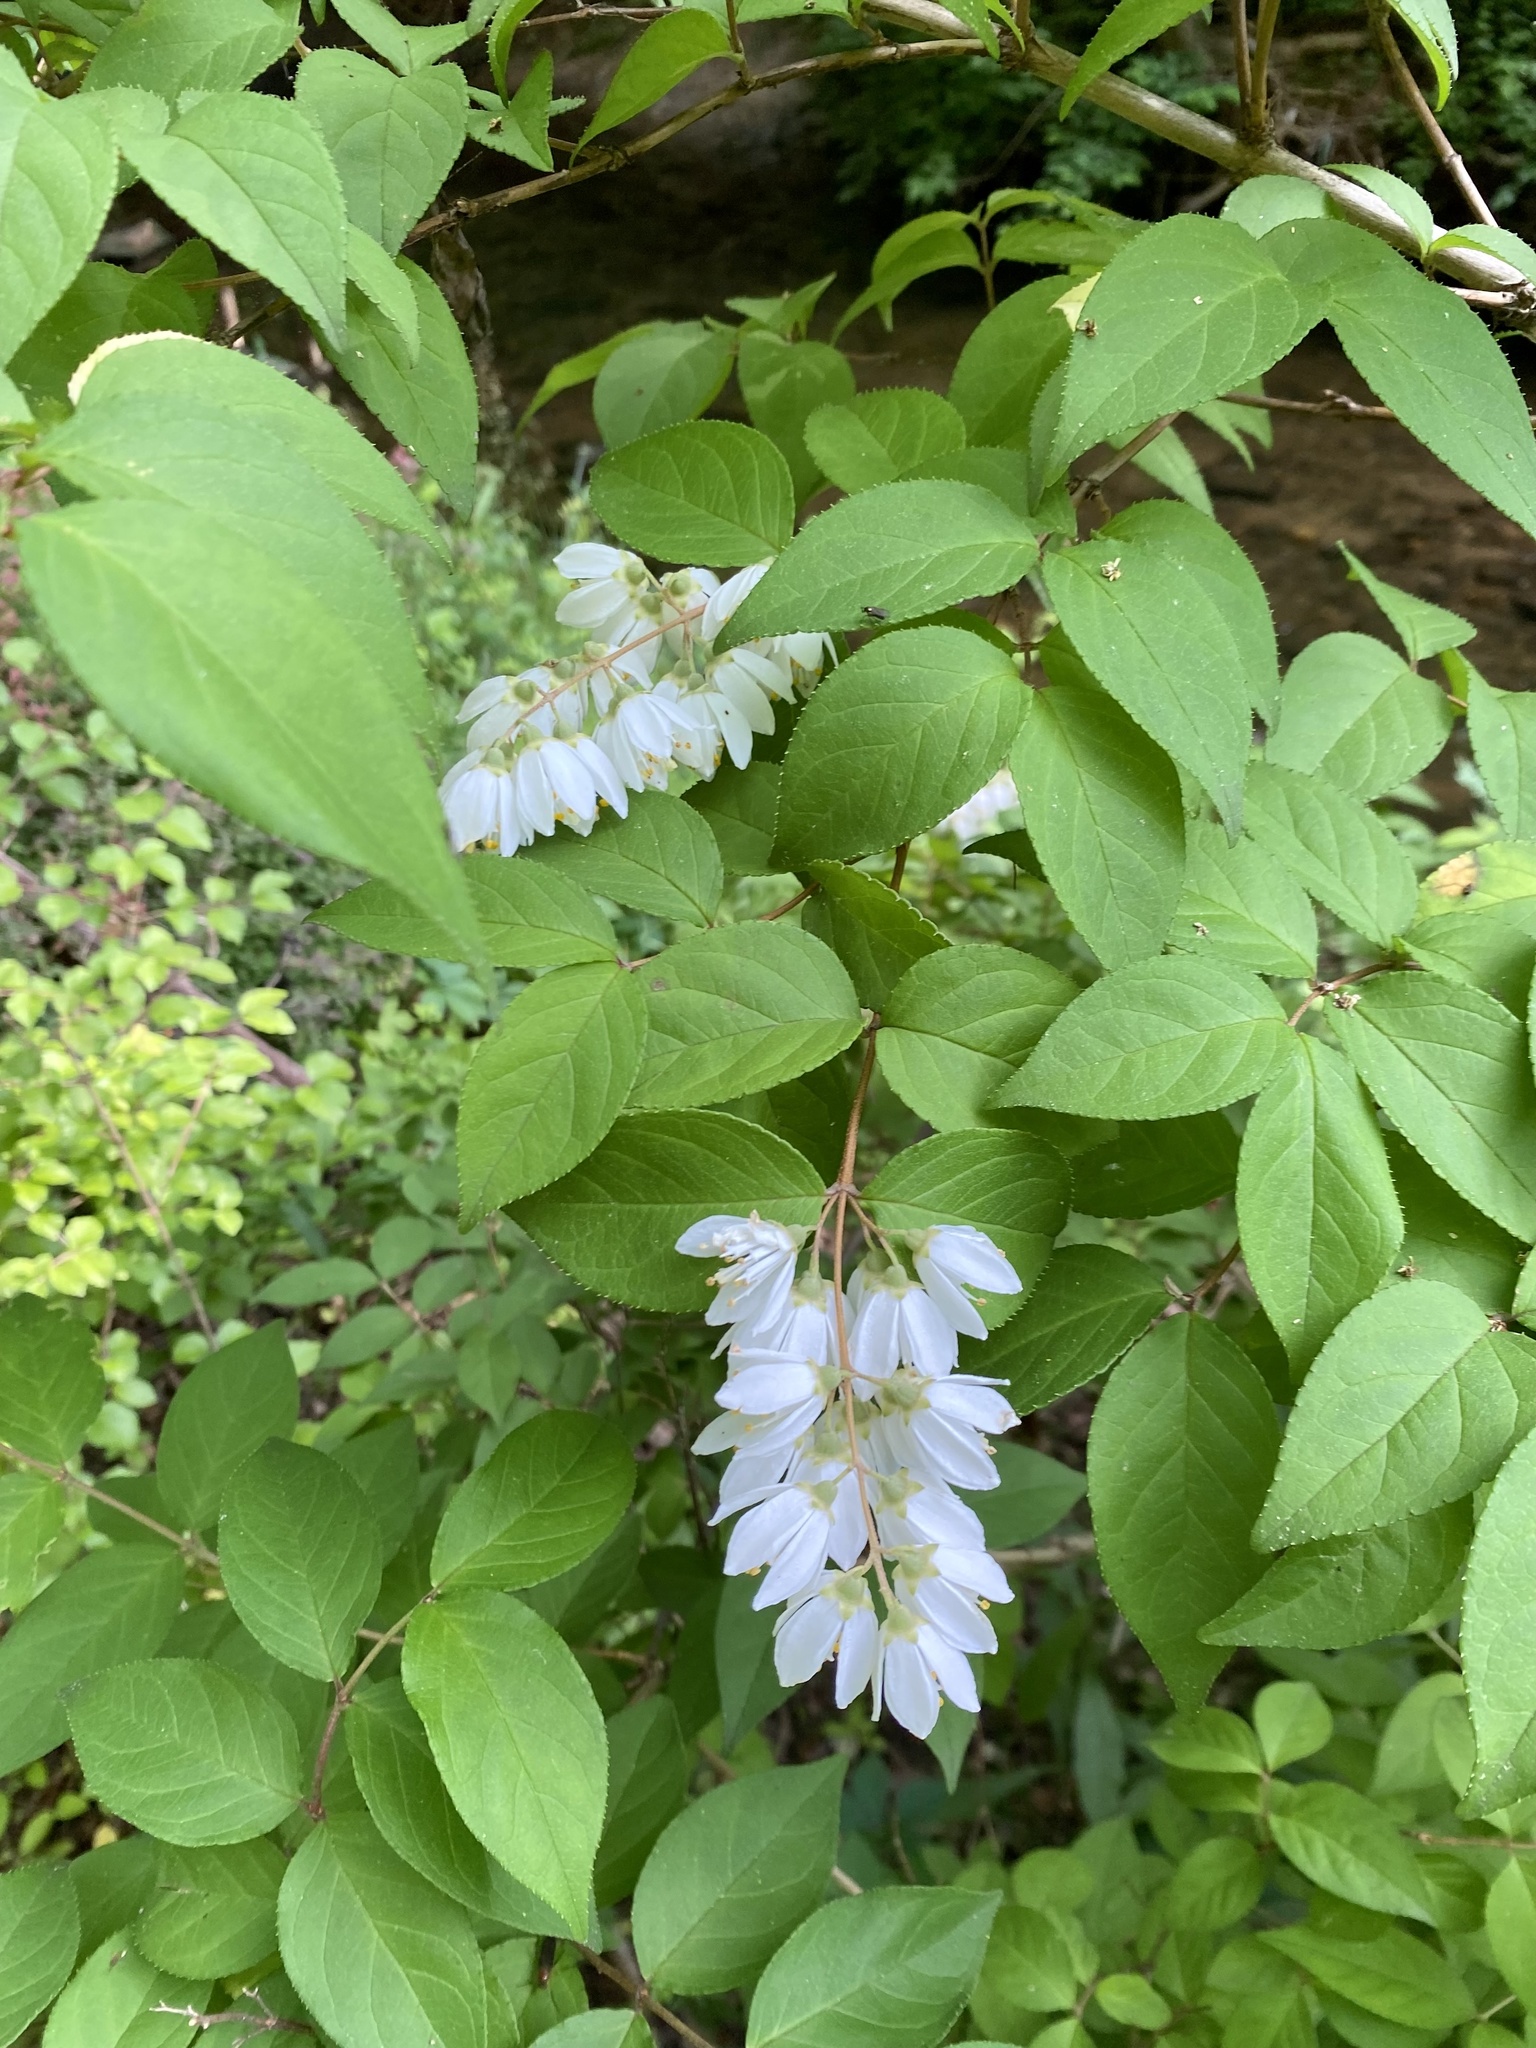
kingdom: Plantae
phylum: Tracheophyta
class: Magnoliopsida
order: Cornales
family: Hydrangeaceae
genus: Deutzia
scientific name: Deutzia crenata
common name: Deutzia
